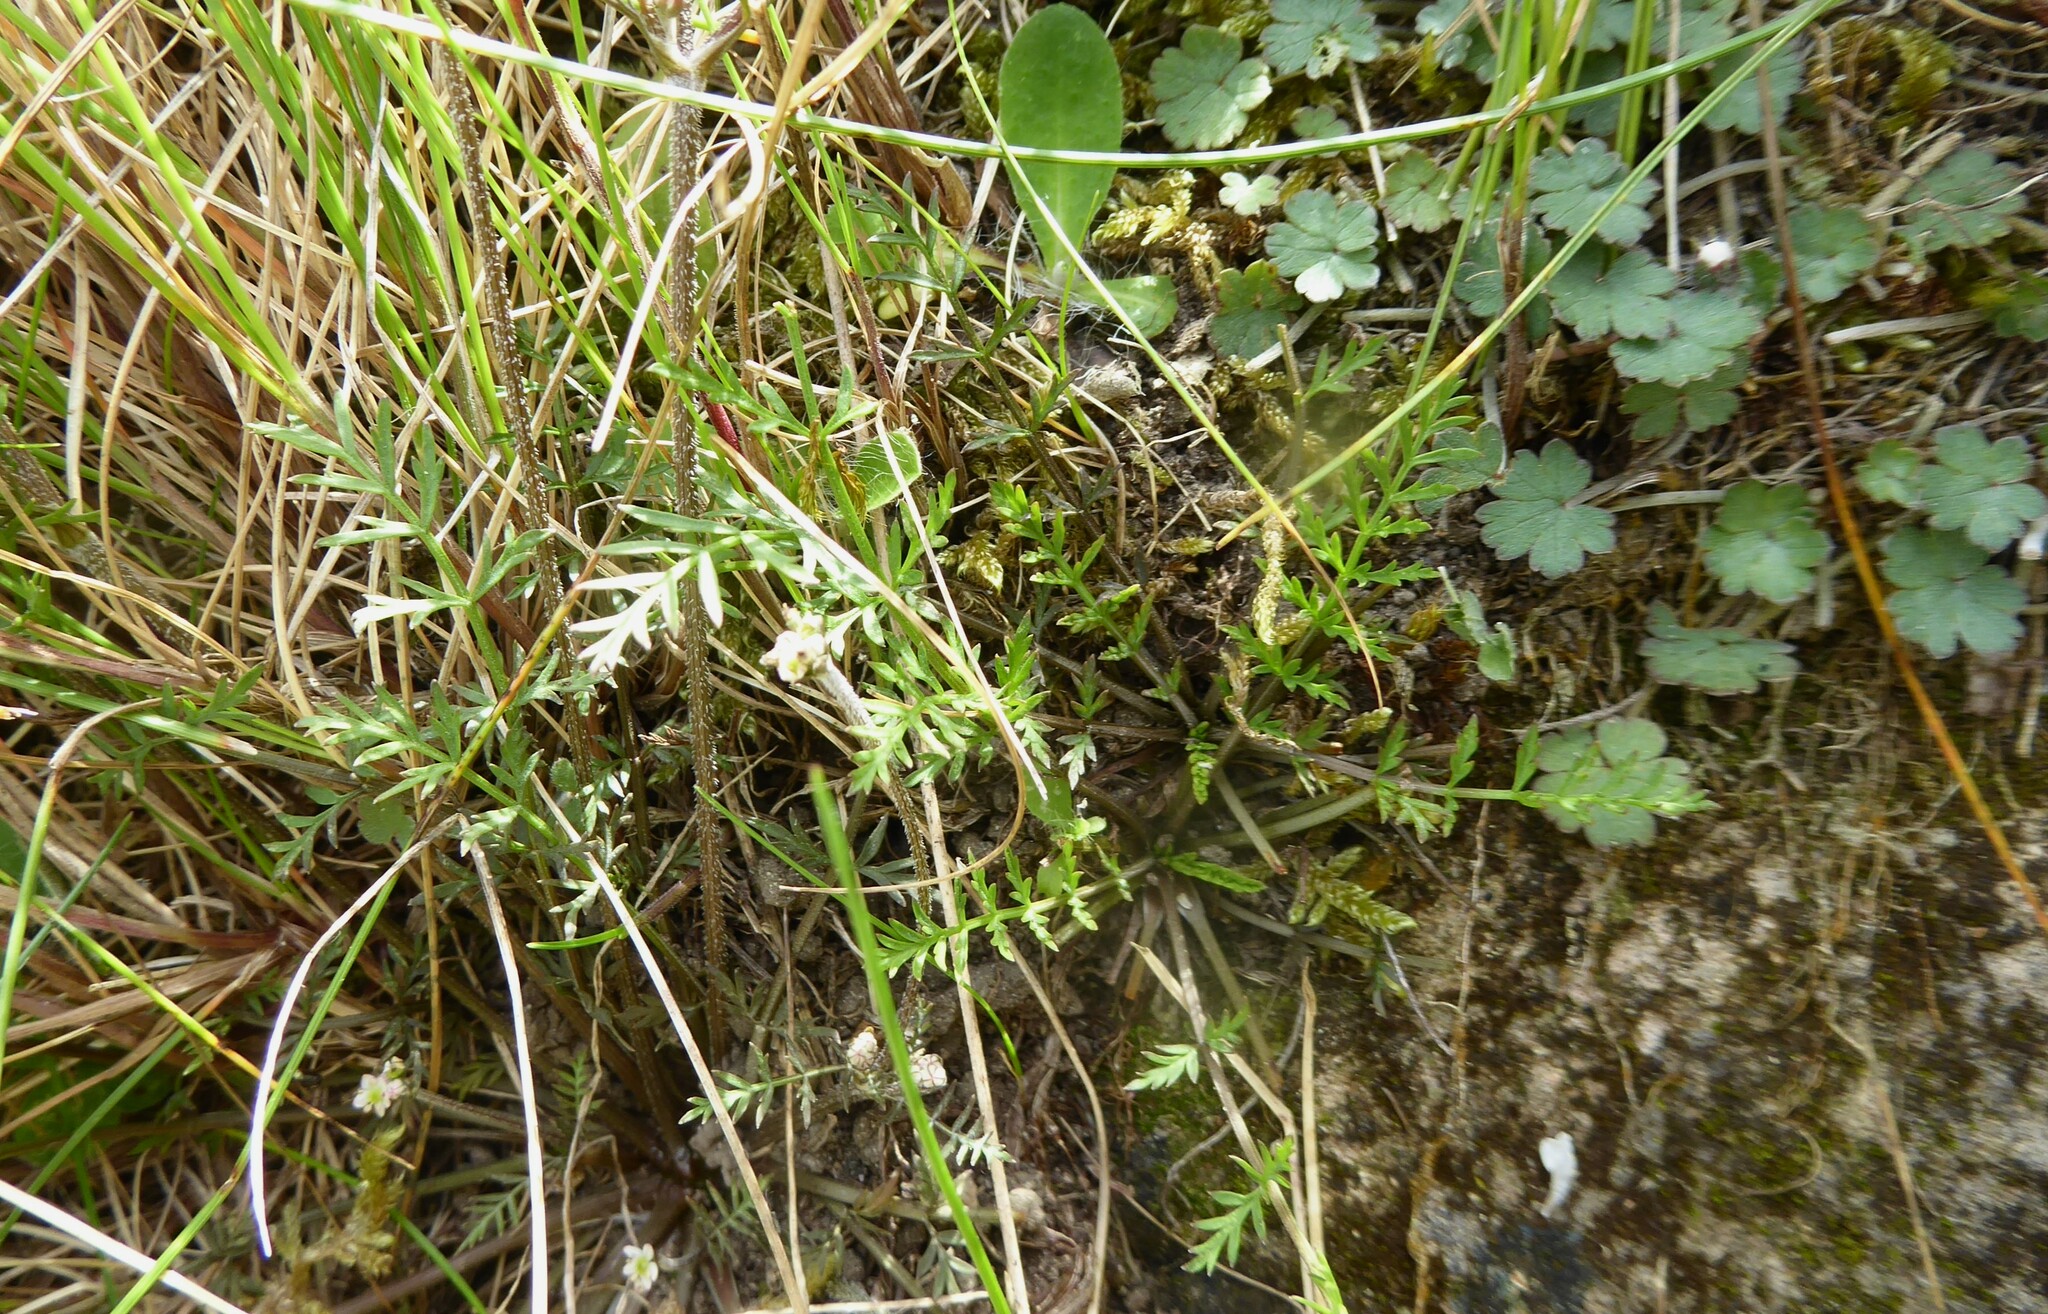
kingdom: Plantae
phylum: Tracheophyta
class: Magnoliopsida
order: Apiales
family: Apiaceae
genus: Chaerophyllum
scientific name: Chaerophyllum novae-zelandiae
